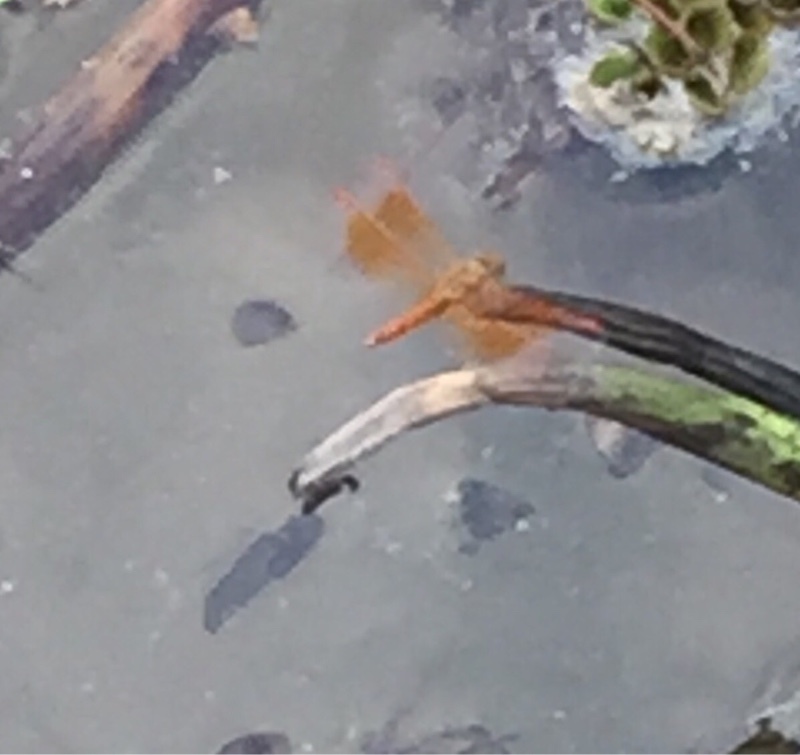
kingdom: Animalia
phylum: Arthropoda
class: Insecta
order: Odonata
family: Libellulidae
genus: Brachythemis
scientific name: Brachythemis contaminata
